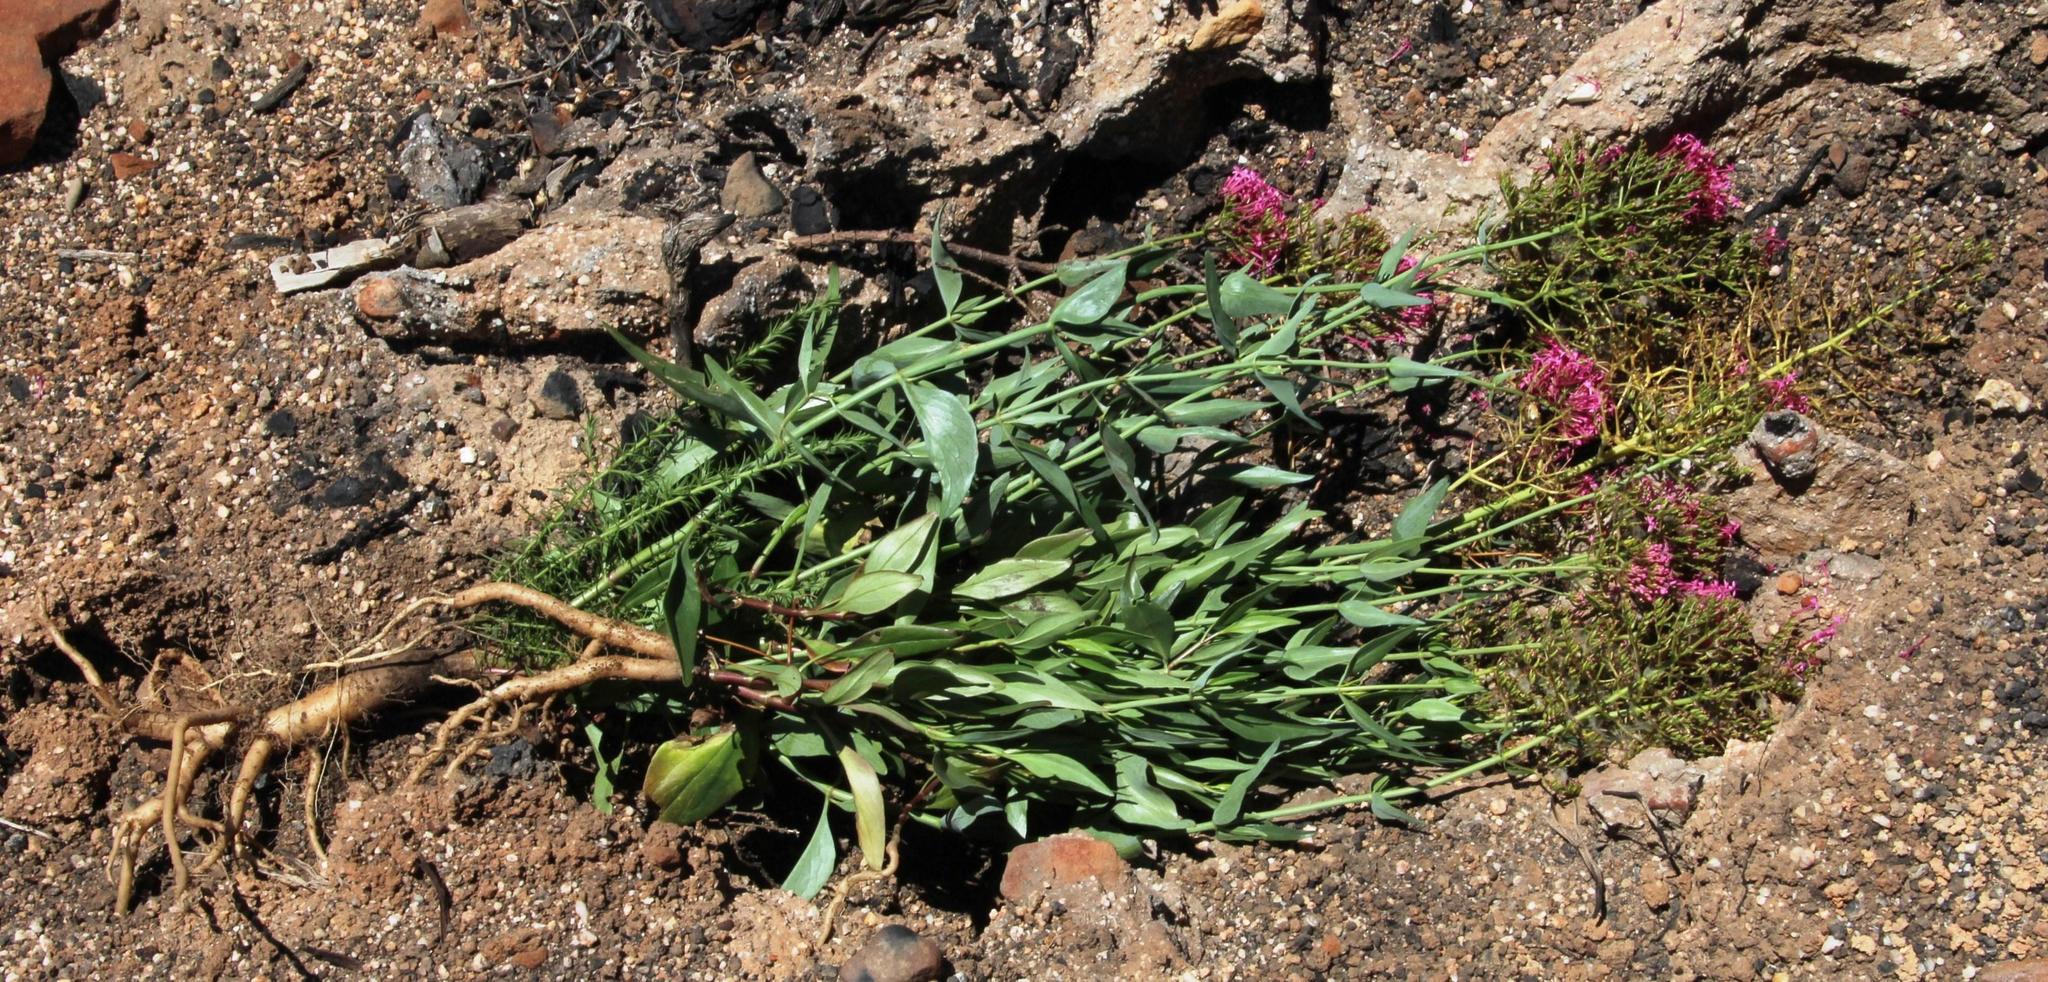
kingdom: Plantae
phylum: Tracheophyta
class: Magnoliopsida
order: Dipsacales
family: Caprifoliaceae
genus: Centranthus
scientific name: Centranthus ruber
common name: Red valerian
